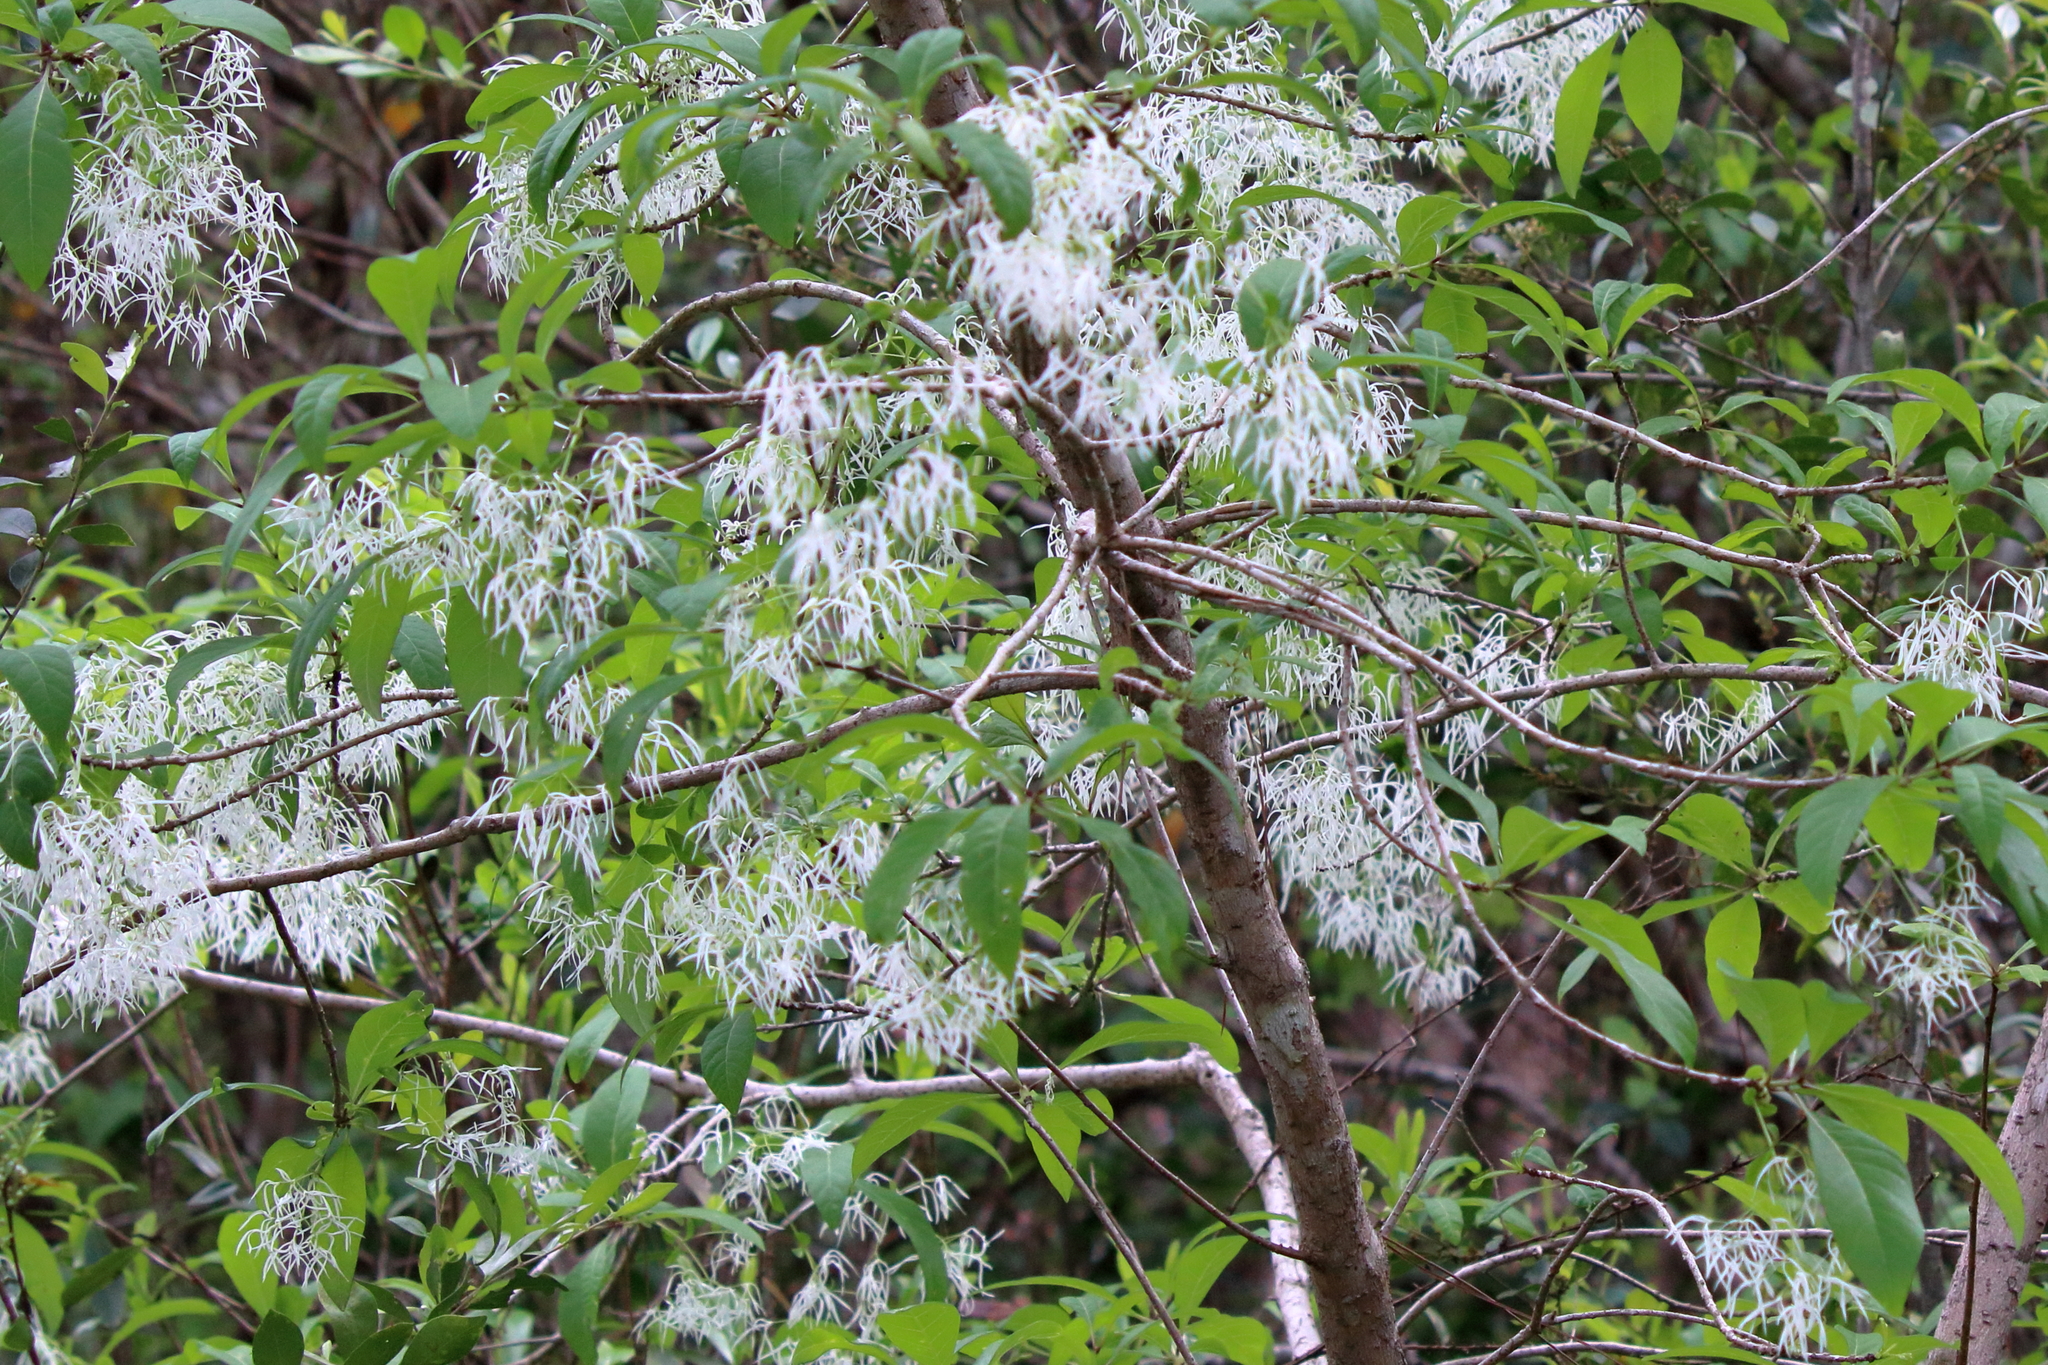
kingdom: Plantae
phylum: Tracheophyta
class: Magnoliopsida
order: Lamiales
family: Oleaceae
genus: Chionanthus
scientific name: Chionanthus virginicus
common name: American fringetree
